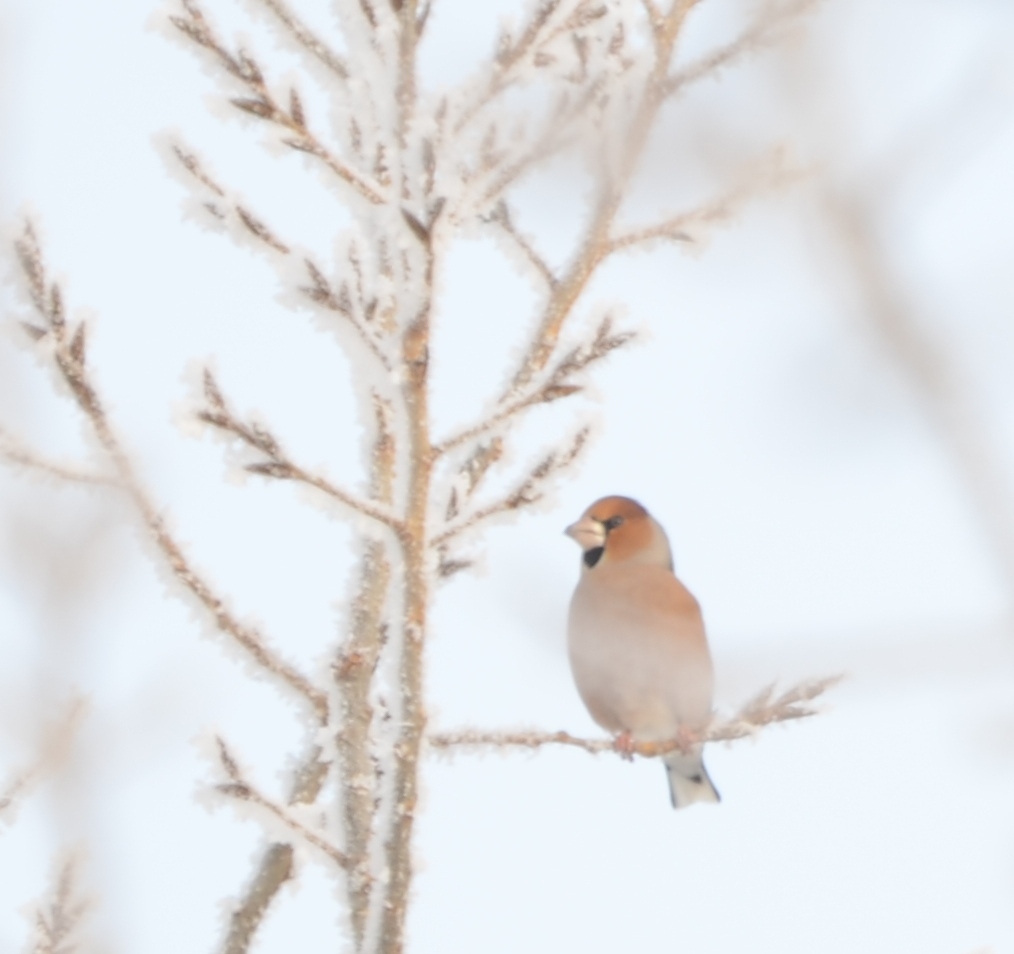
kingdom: Animalia
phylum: Chordata
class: Aves
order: Passeriformes
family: Fringillidae
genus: Coccothraustes
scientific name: Coccothraustes coccothraustes
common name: Hawfinch
